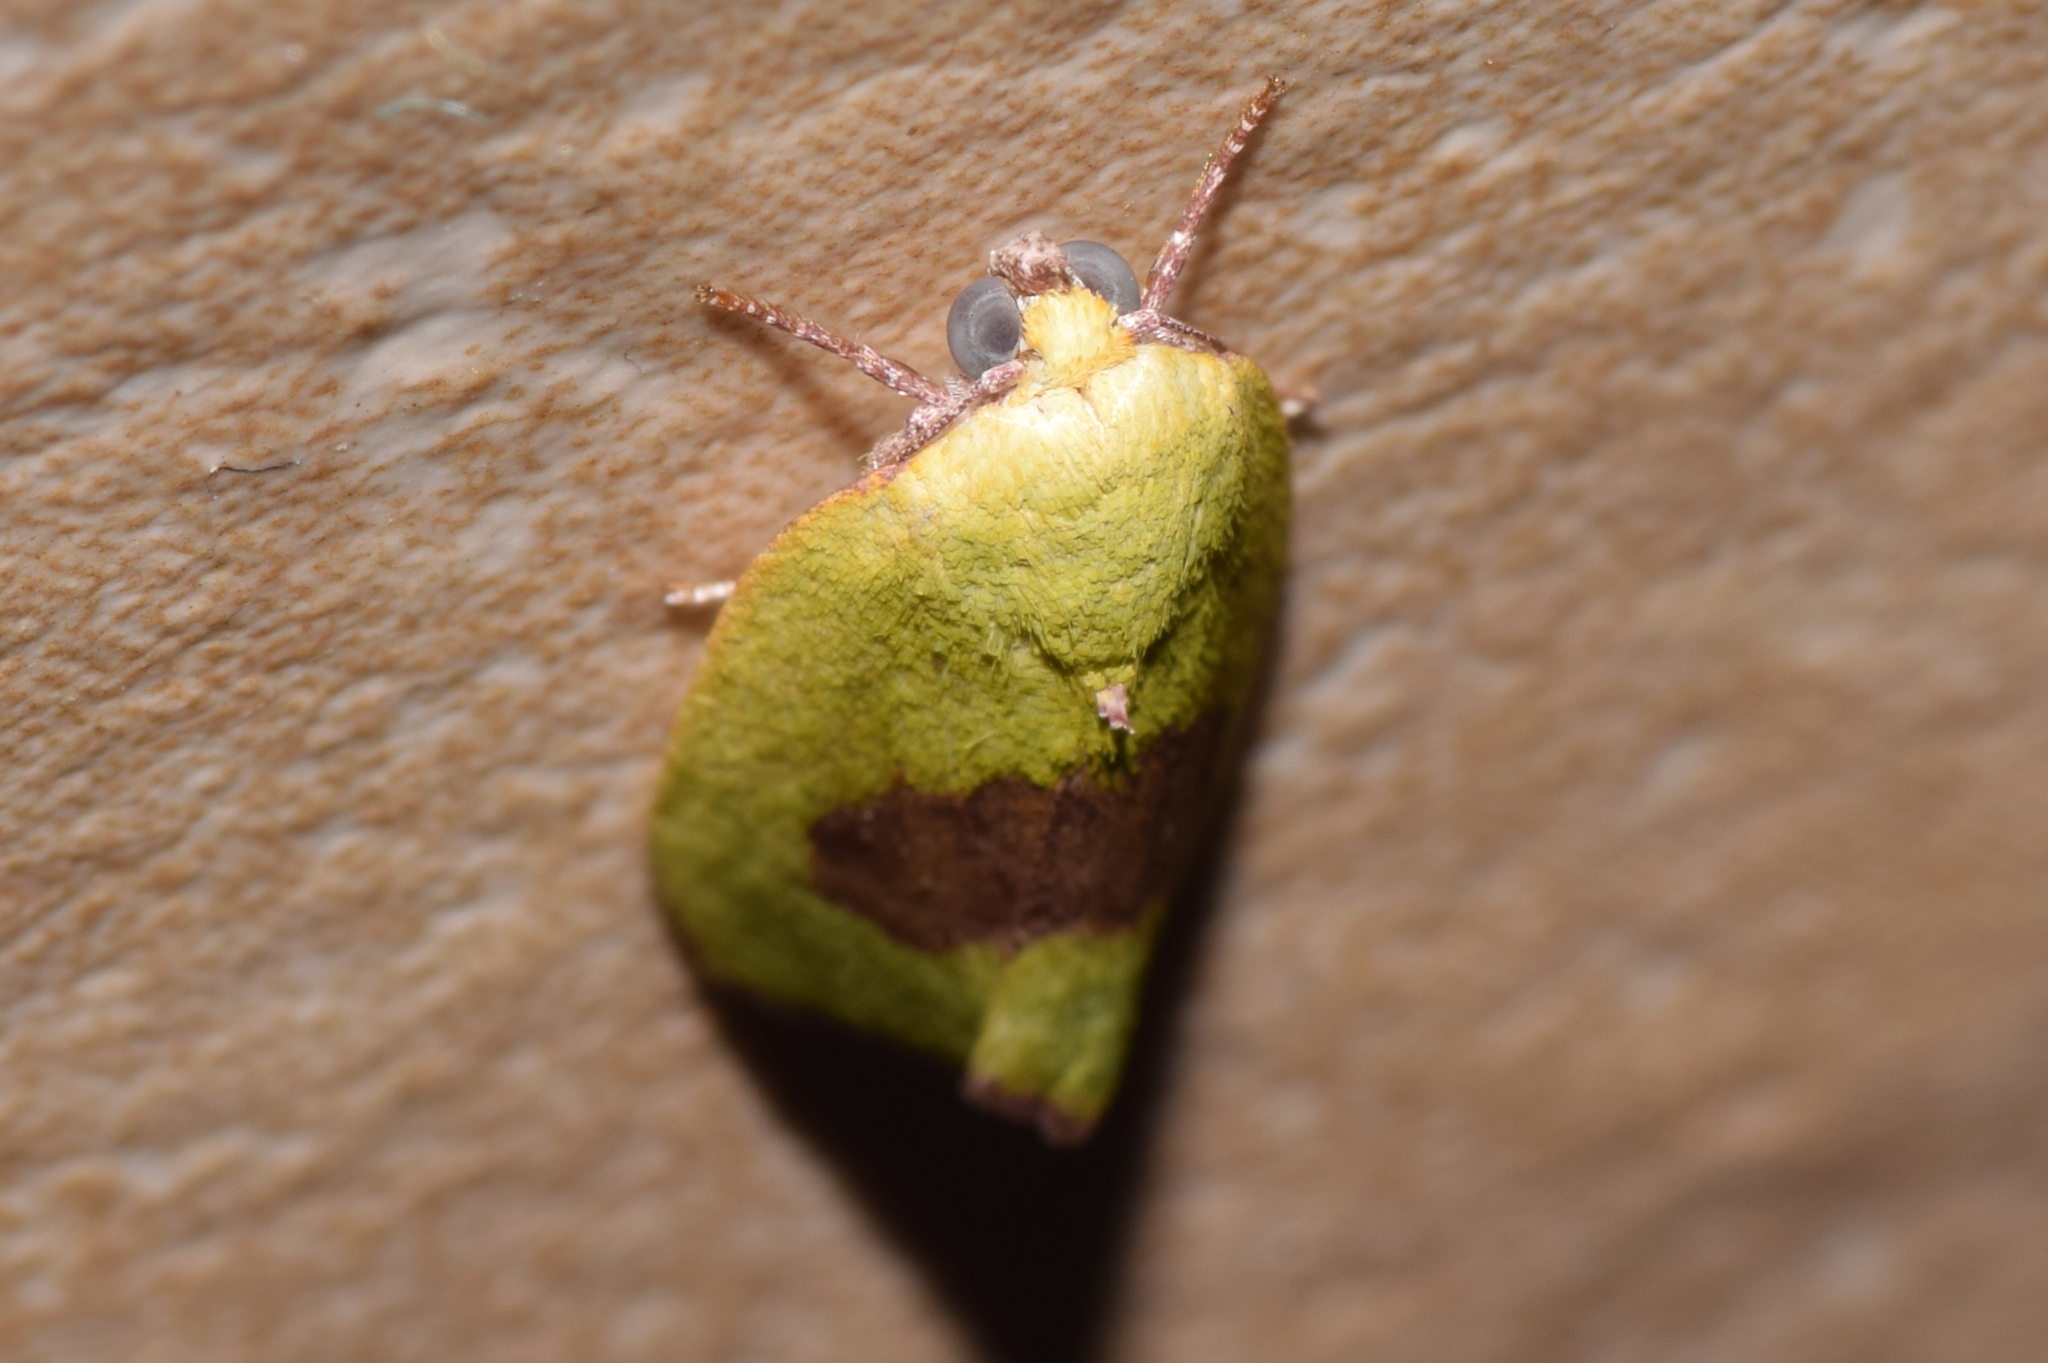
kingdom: Animalia
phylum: Arthropoda
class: Insecta
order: Lepidoptera
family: Nolidae
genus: Earias
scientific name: Earias biplaga
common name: Spiny bollworm
